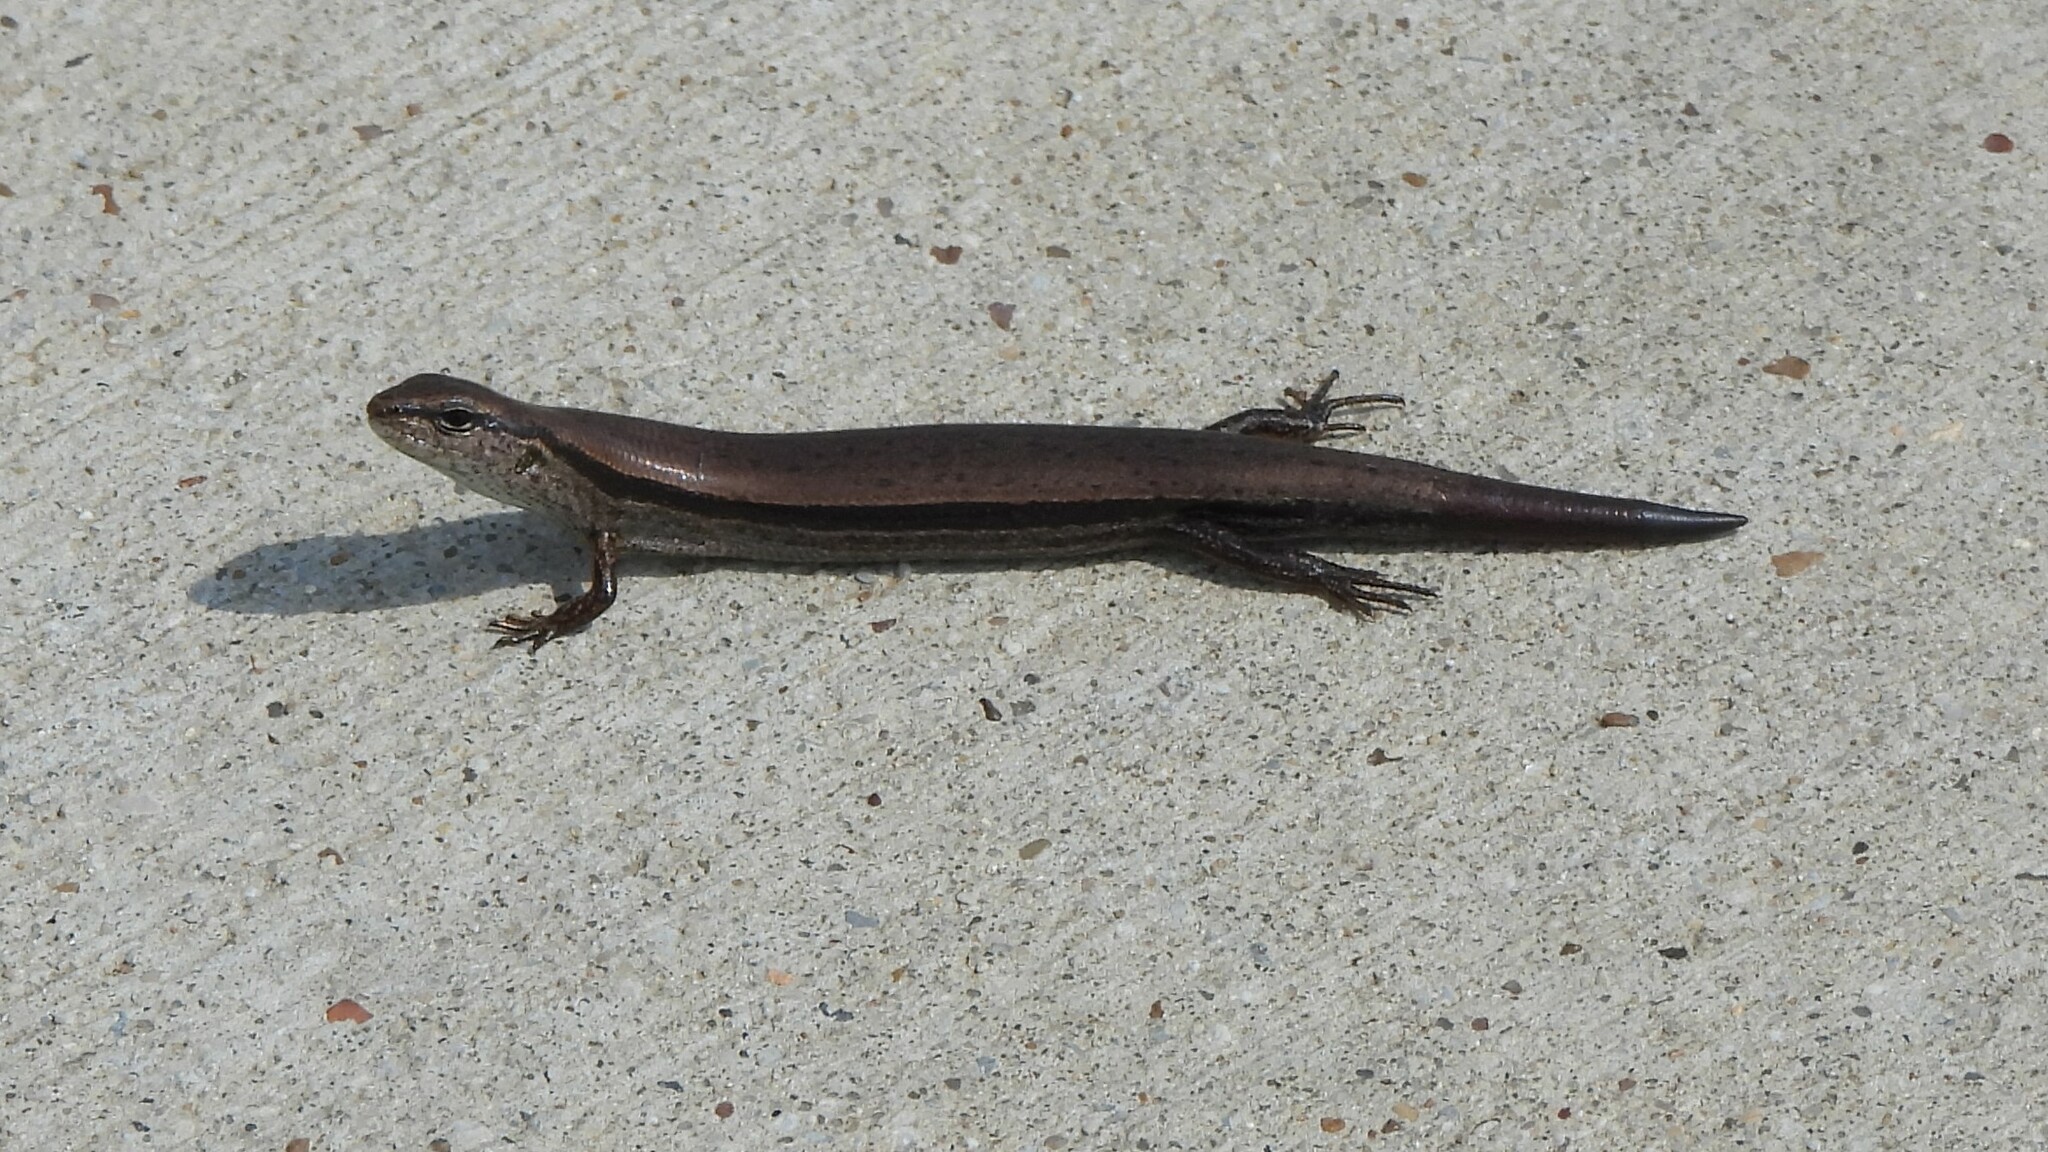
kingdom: Animalia
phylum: Chordata
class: Squamata
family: Scincidae
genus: Scincella
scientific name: Scincella lateralis
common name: Ground skink
